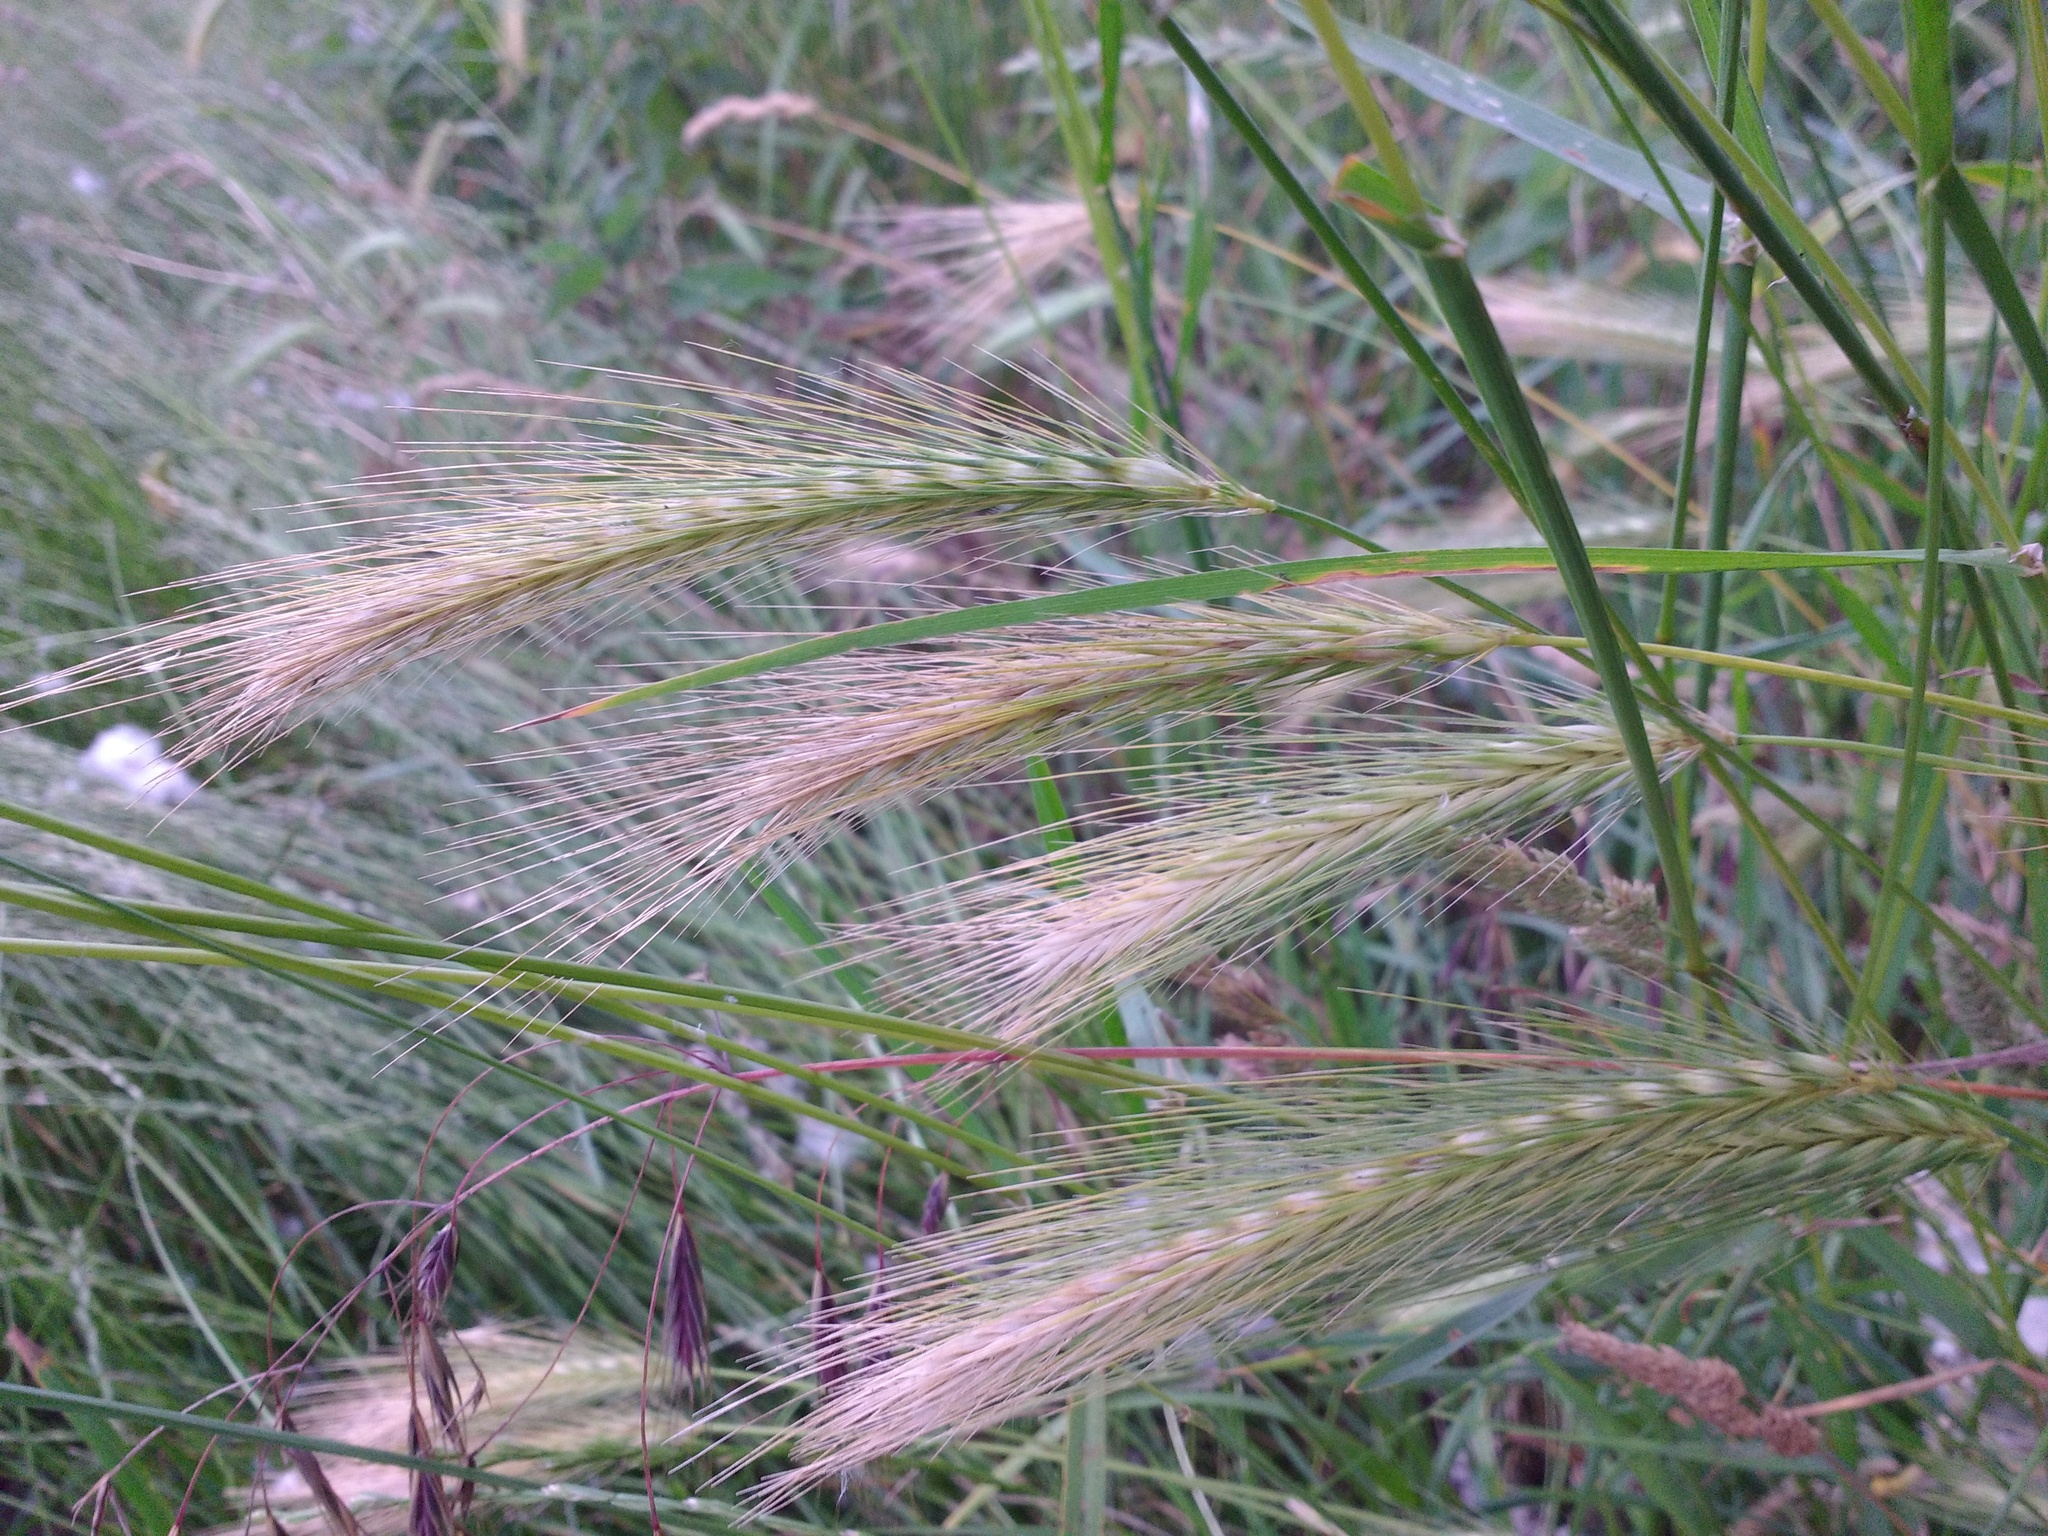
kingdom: Plantae
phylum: Tracheophyta
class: Liliopsida
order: Poales
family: Poaceae
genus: Hordeum
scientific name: Hordeum murinum
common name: Wall barley
